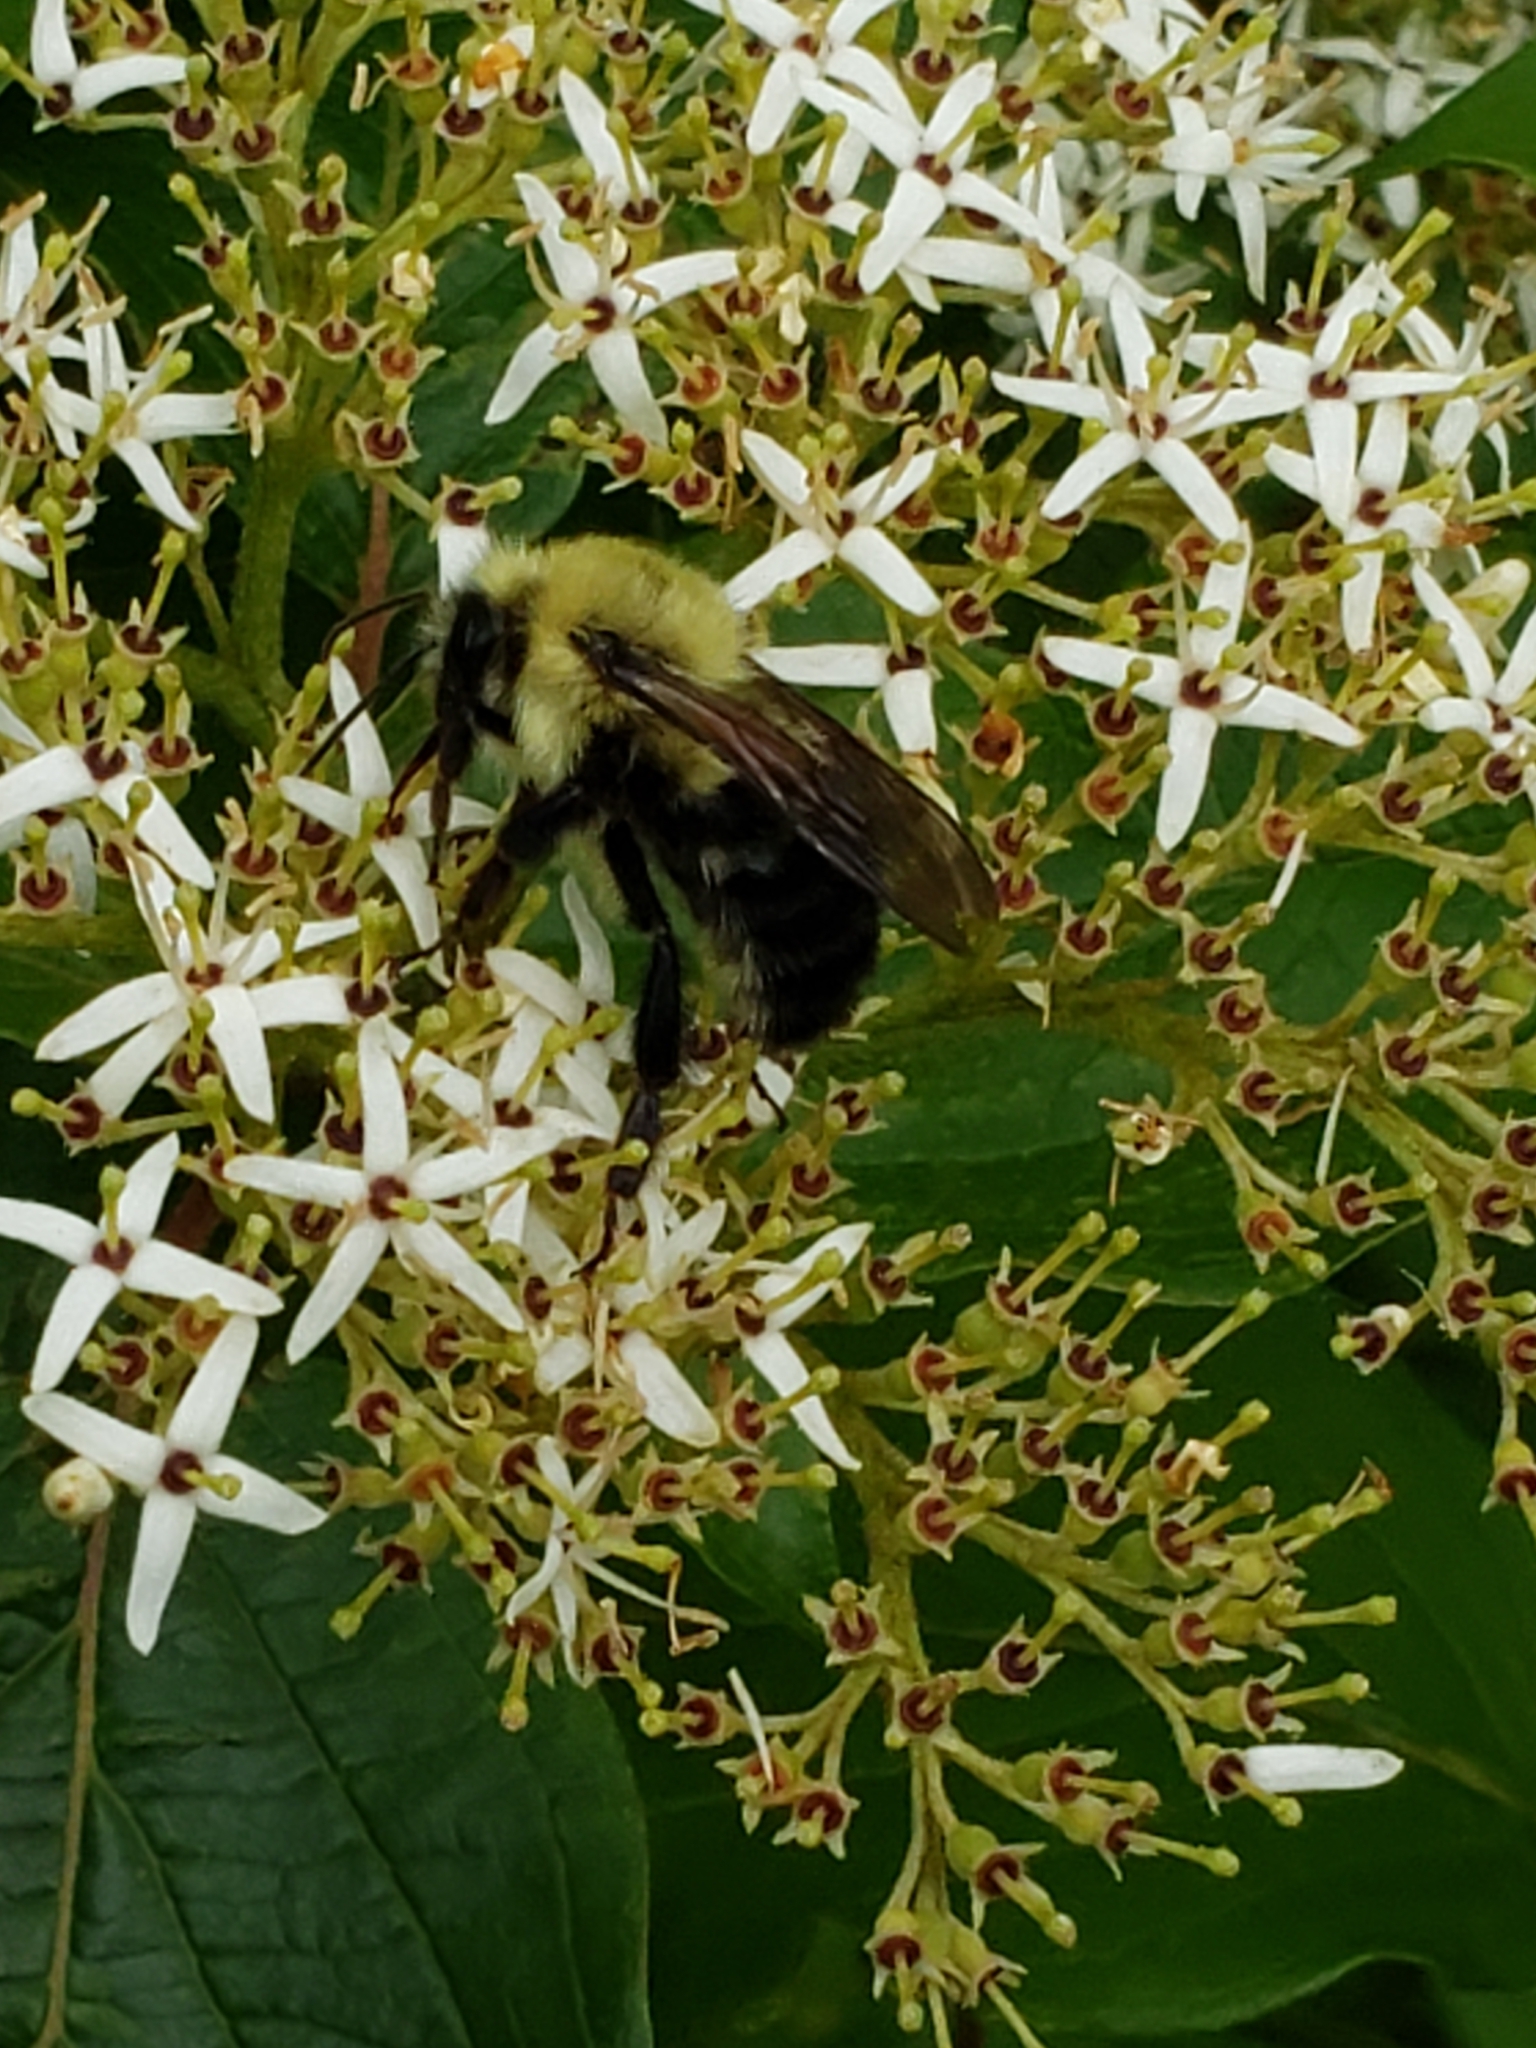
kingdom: Animalia
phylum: Arthropoda
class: Insecta
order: Hymenoptera
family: Apidae
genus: Bombus
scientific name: Bombus bimaculatus
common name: Two-spotted bumble bee
